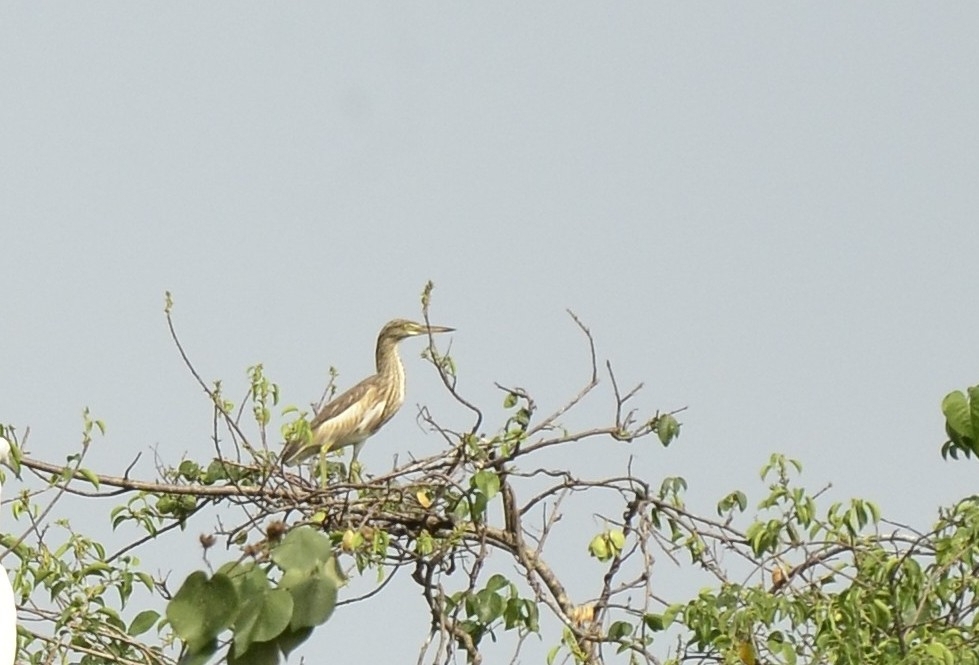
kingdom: Animalia
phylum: Chordata
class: Aves
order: Pelecaniformes
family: Ardeidae
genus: Ardeola
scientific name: Ardeola grayii
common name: Indian pond heron
